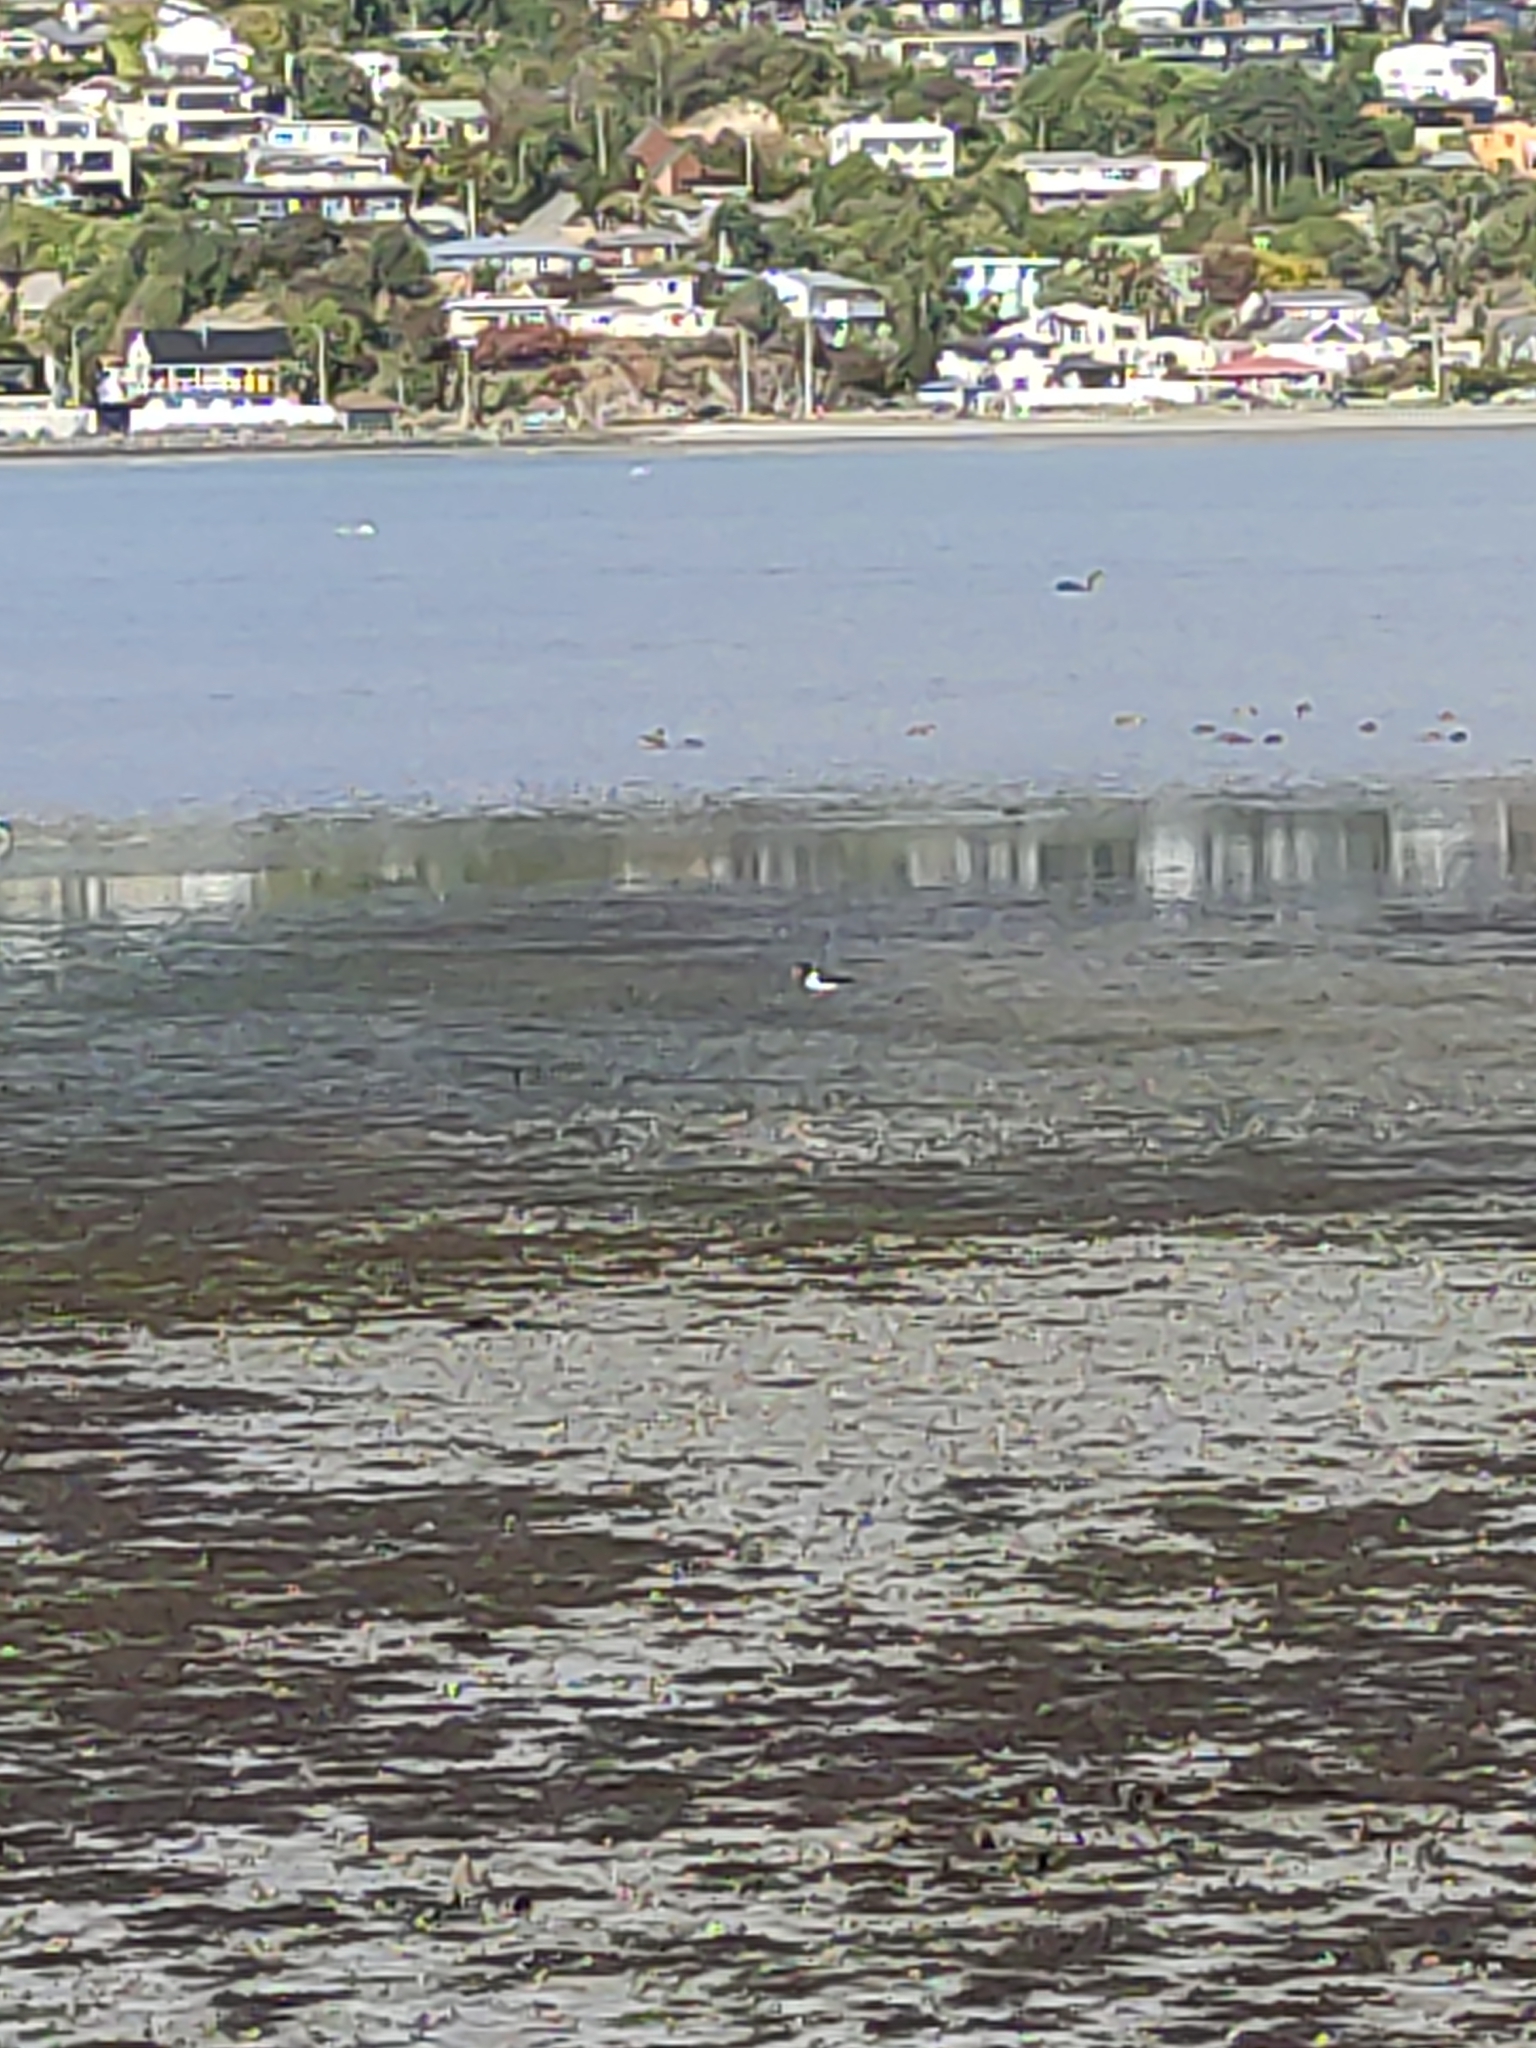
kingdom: Animalia
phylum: Chordata
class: Aves
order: Charadriiformes
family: Haematopodidae
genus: Haematopus
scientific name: Haematopus finschi
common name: South island oystercatcher
